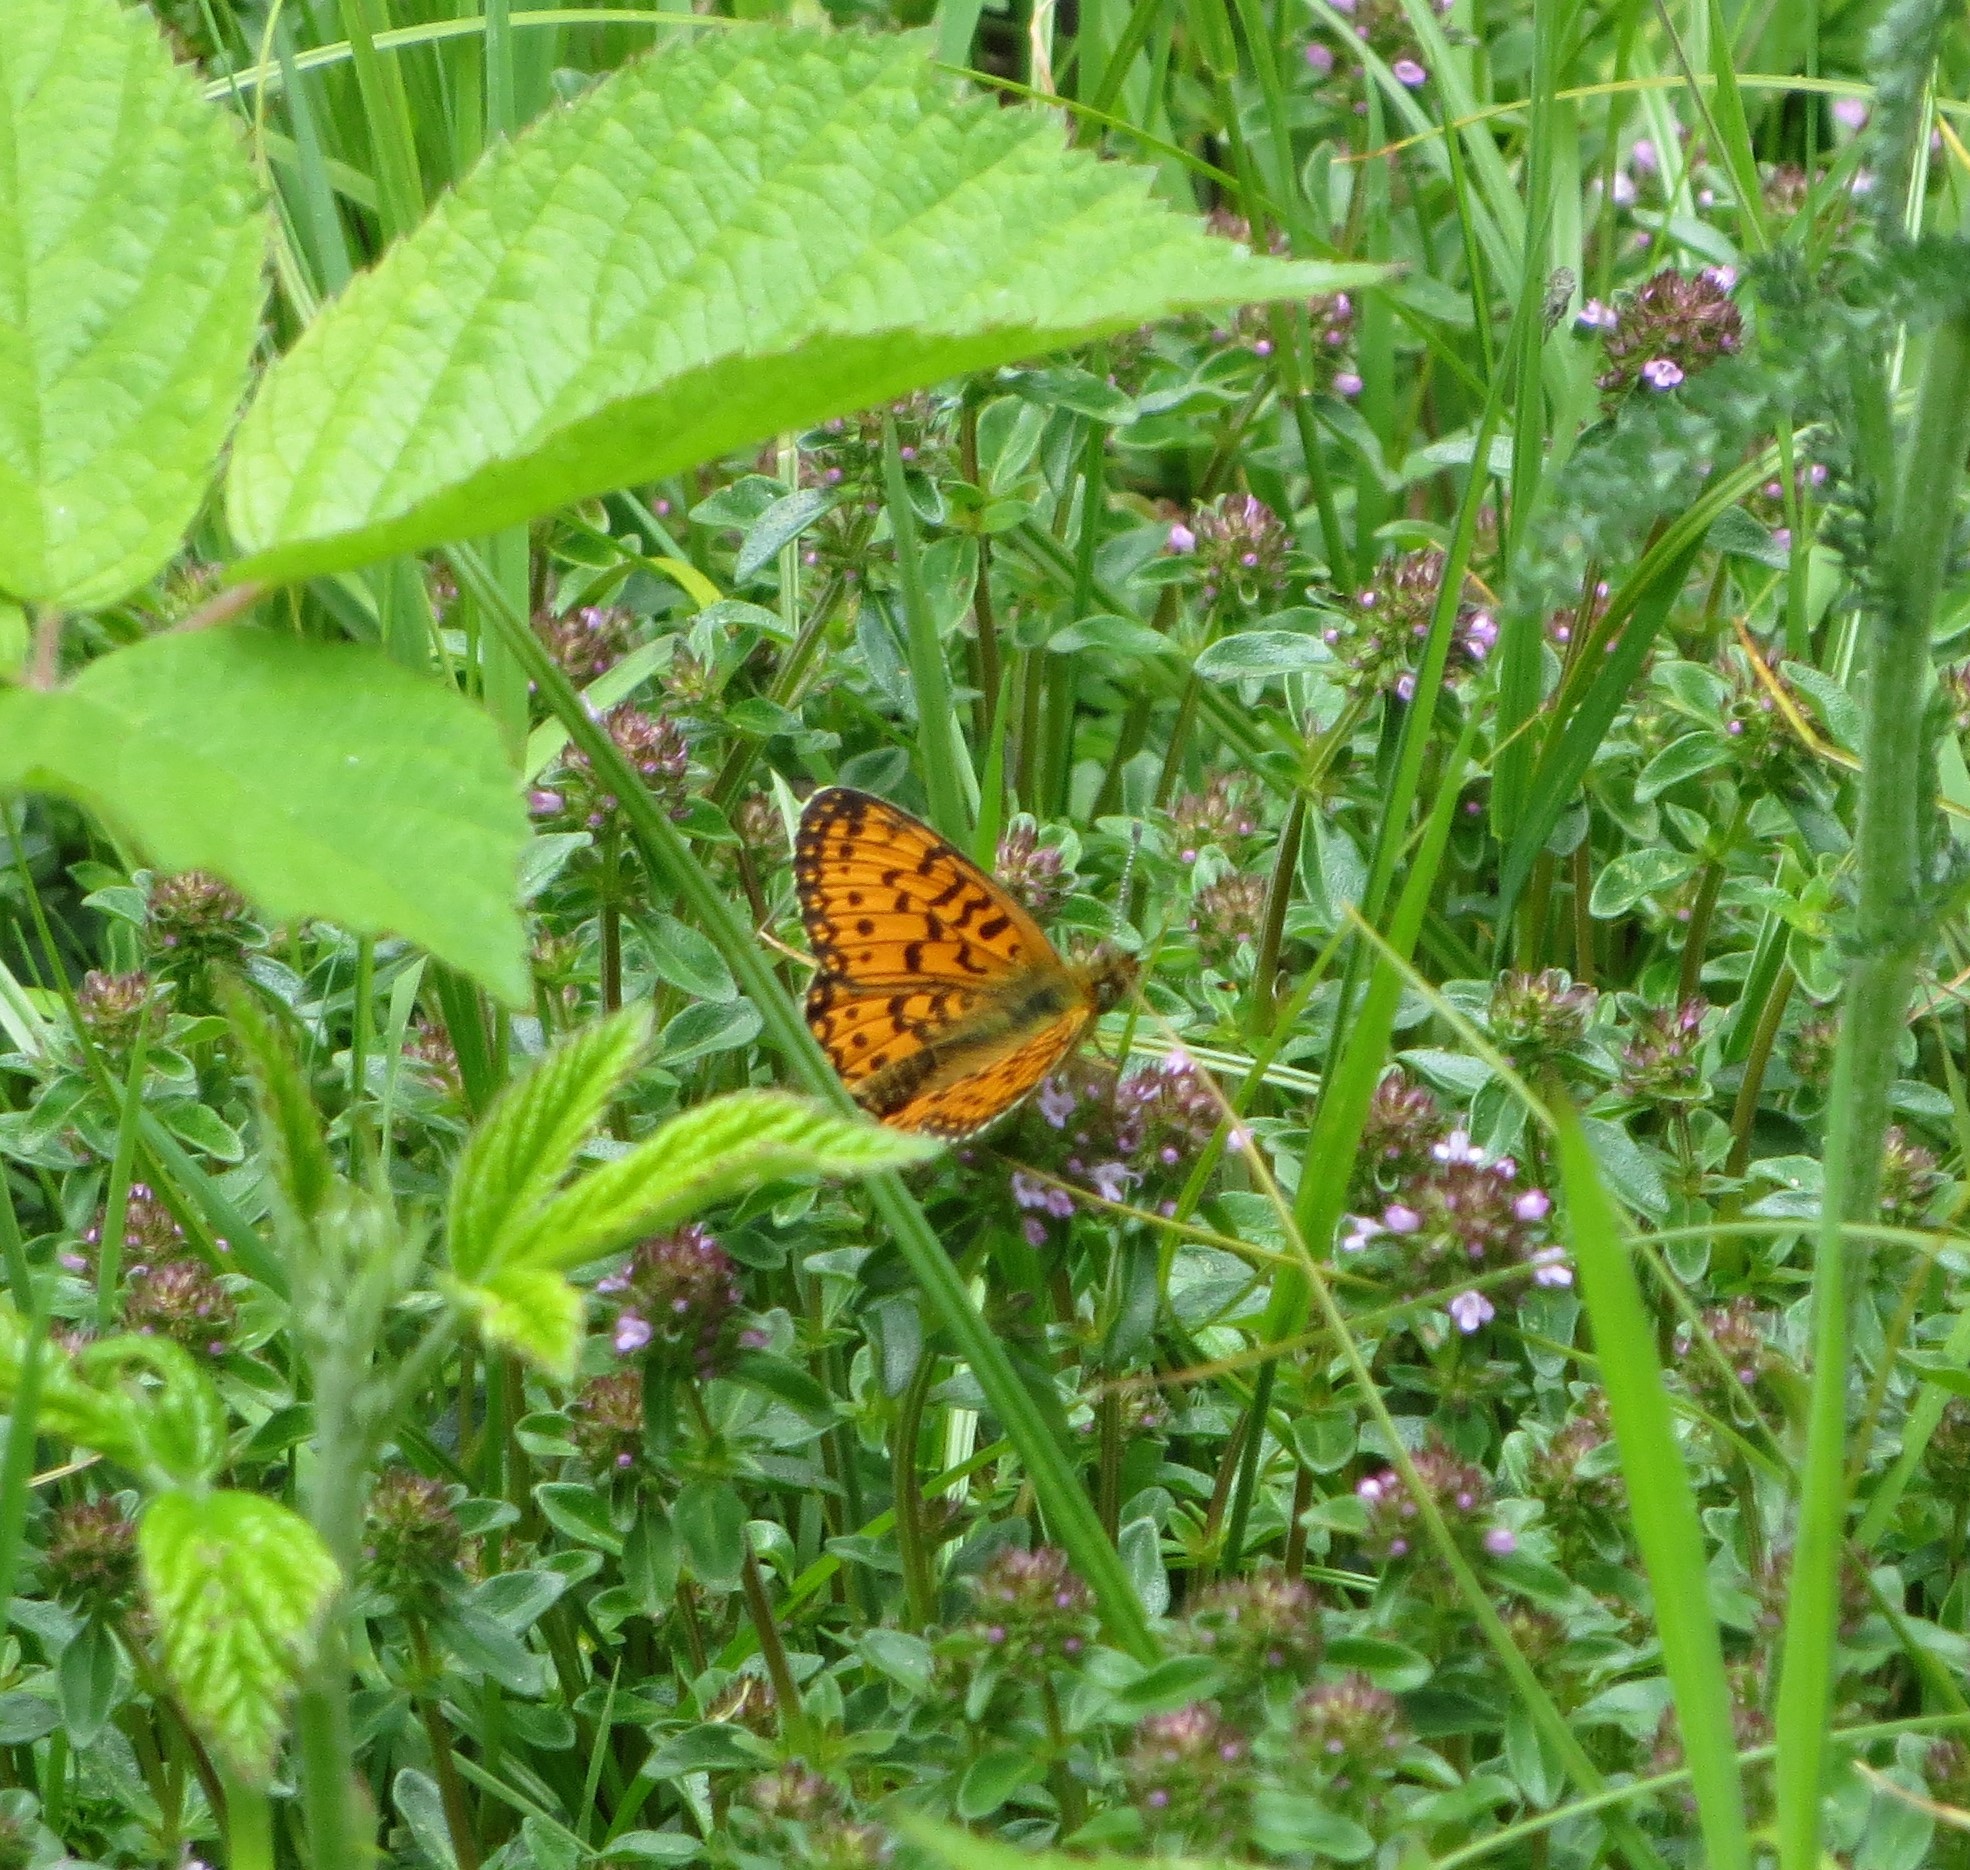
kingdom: Animalia
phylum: Arthropoda
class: Insecta
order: Lepidoptera
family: Nymphalidae
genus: Boloria
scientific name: Boloria selene
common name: Small pearl-bordered fritillary
